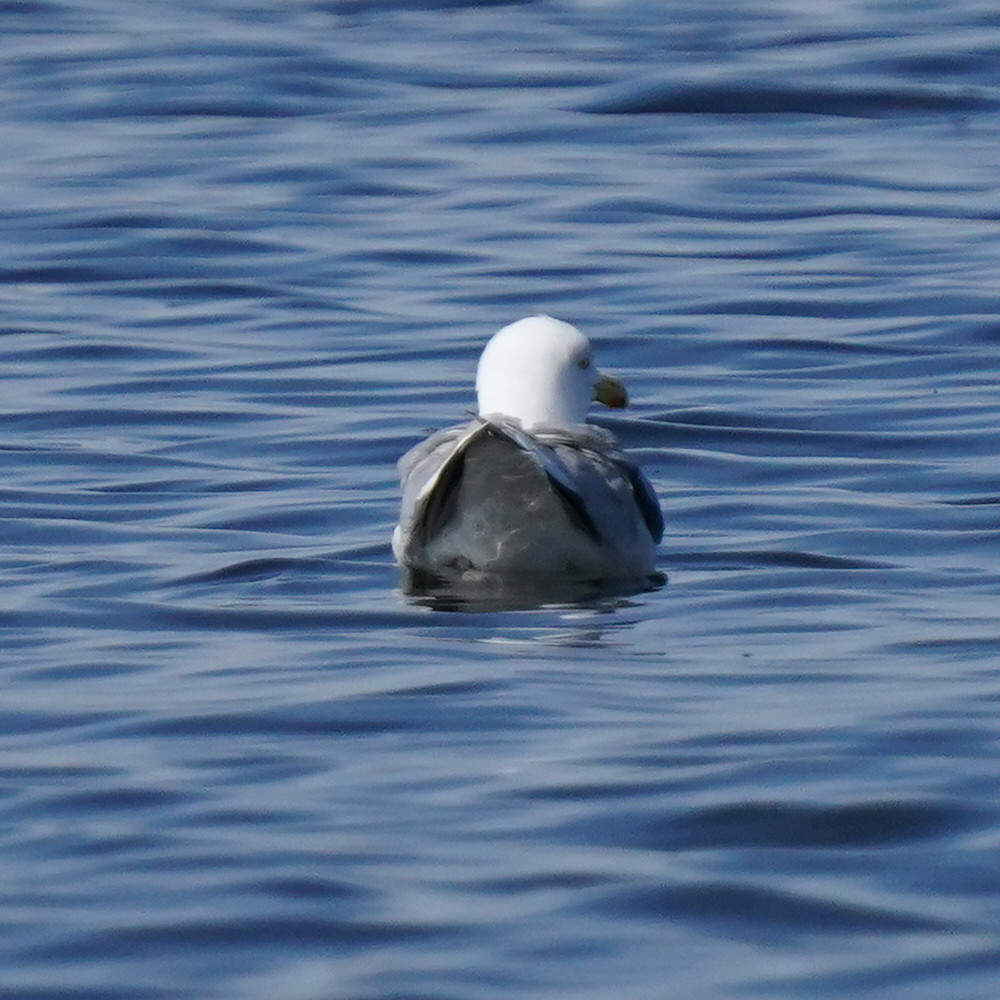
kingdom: Animalia
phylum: Chordata
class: Aves
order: Charadriiformes
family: Laridae
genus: Larus
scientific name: Larus argentatus
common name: Herring gull
